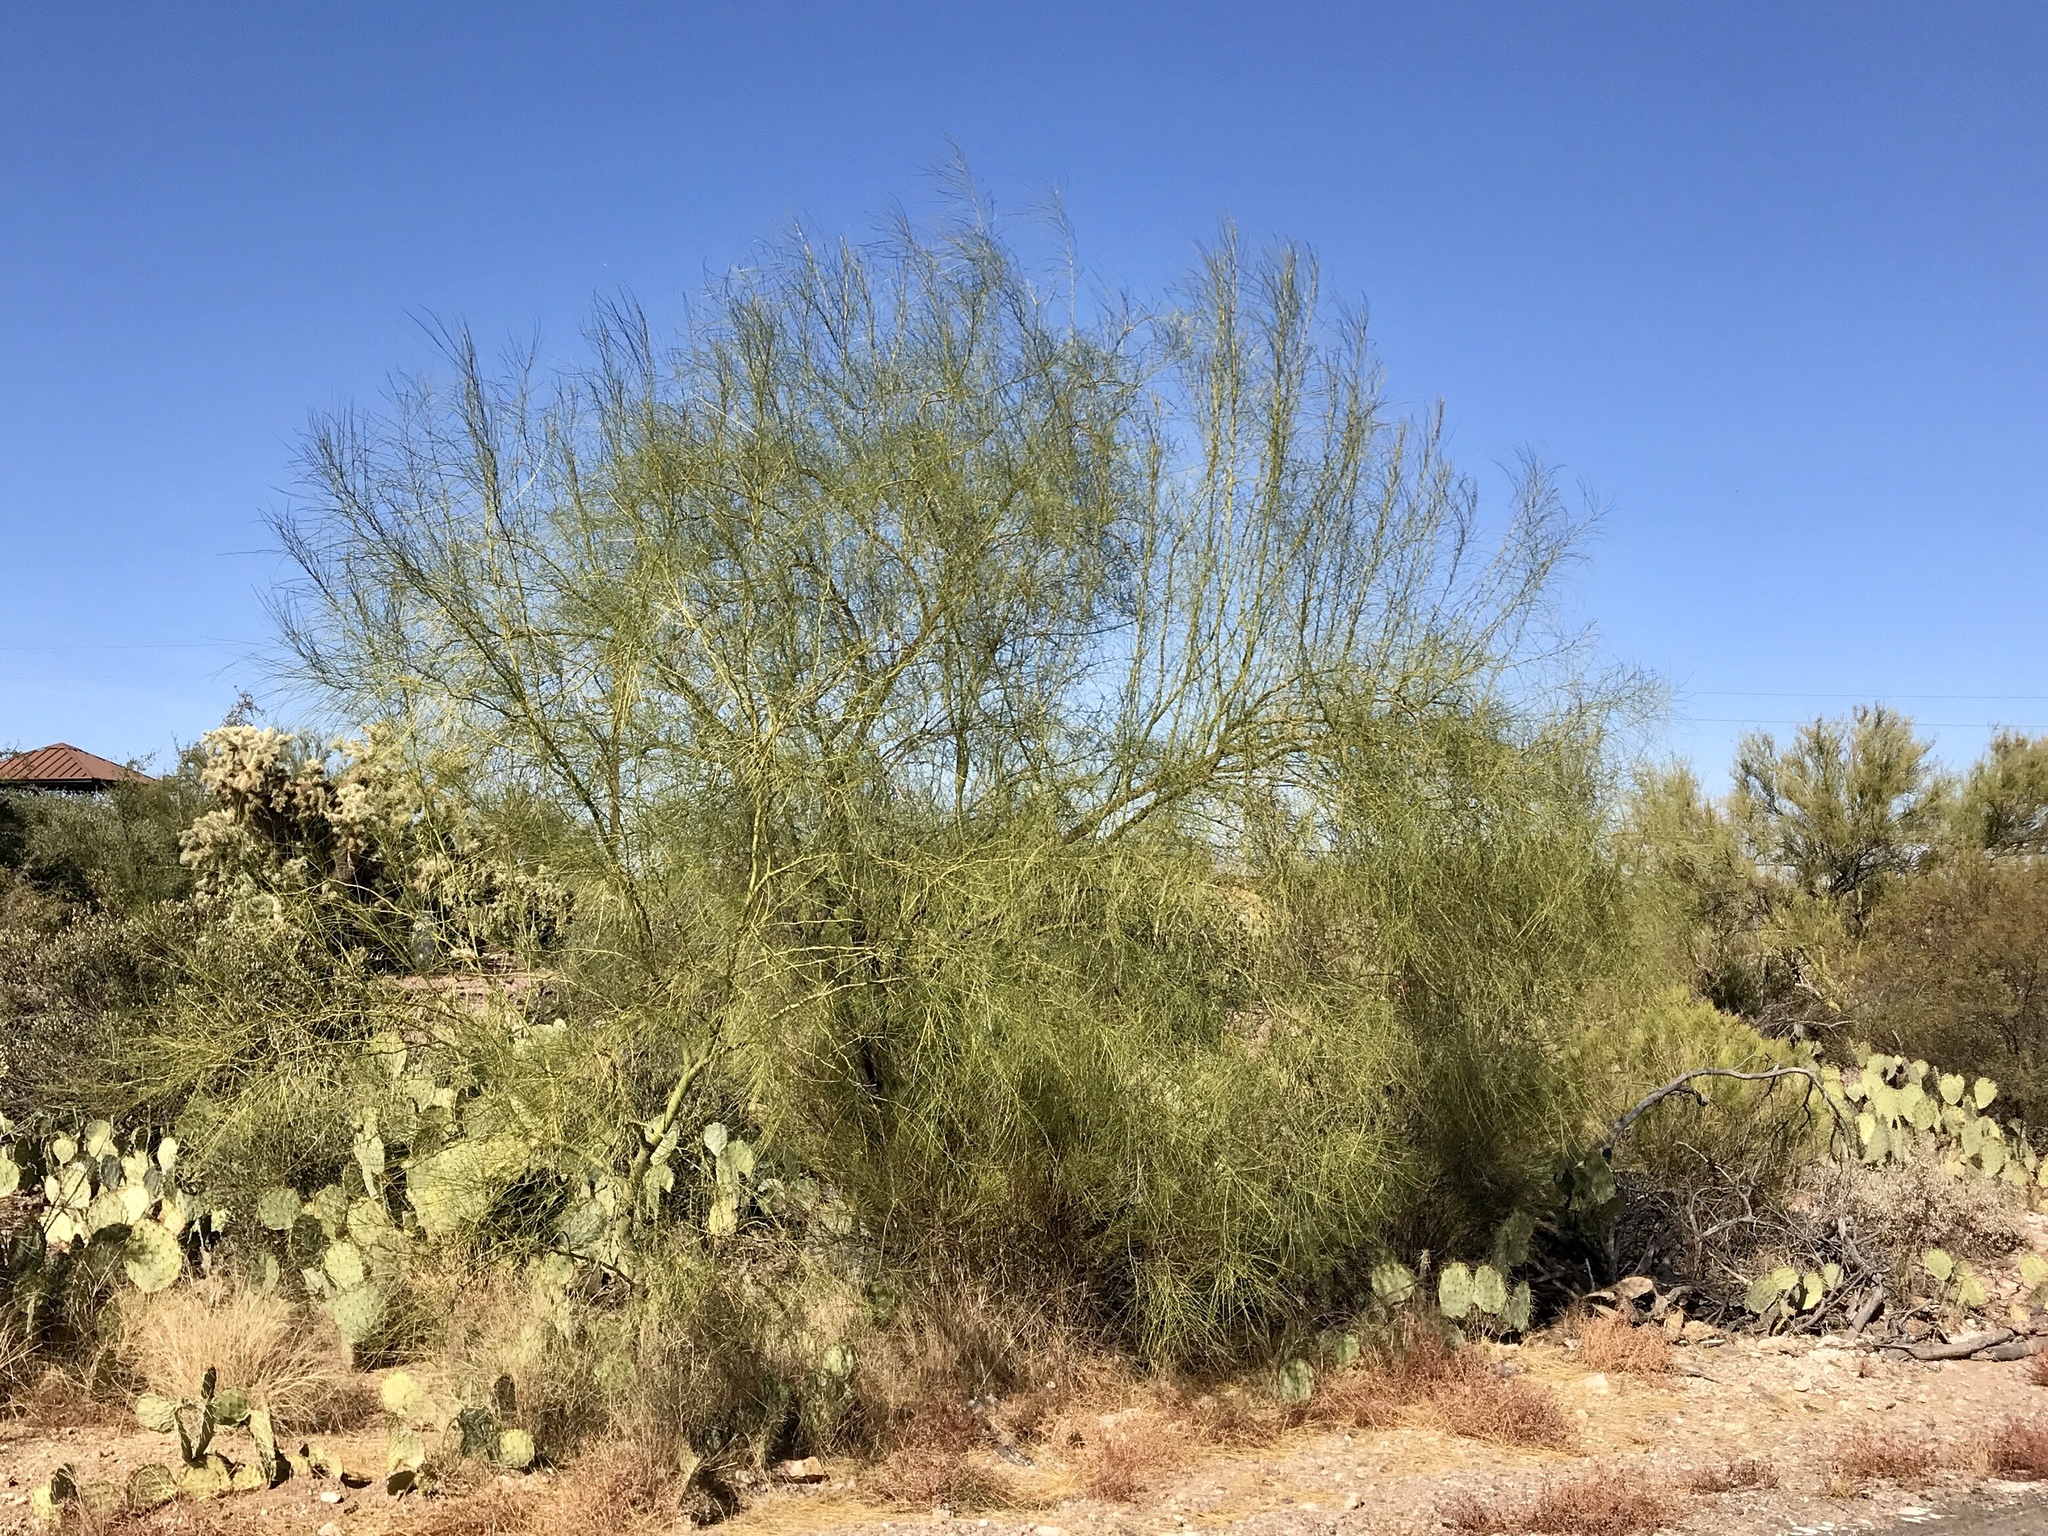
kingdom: Plantae
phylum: Tracheophyta
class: Magnoliopsida
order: Fabales
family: Fabaceae
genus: Parkinsonia
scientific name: Parkinsonia aculeata
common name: Jerusalem thorn
